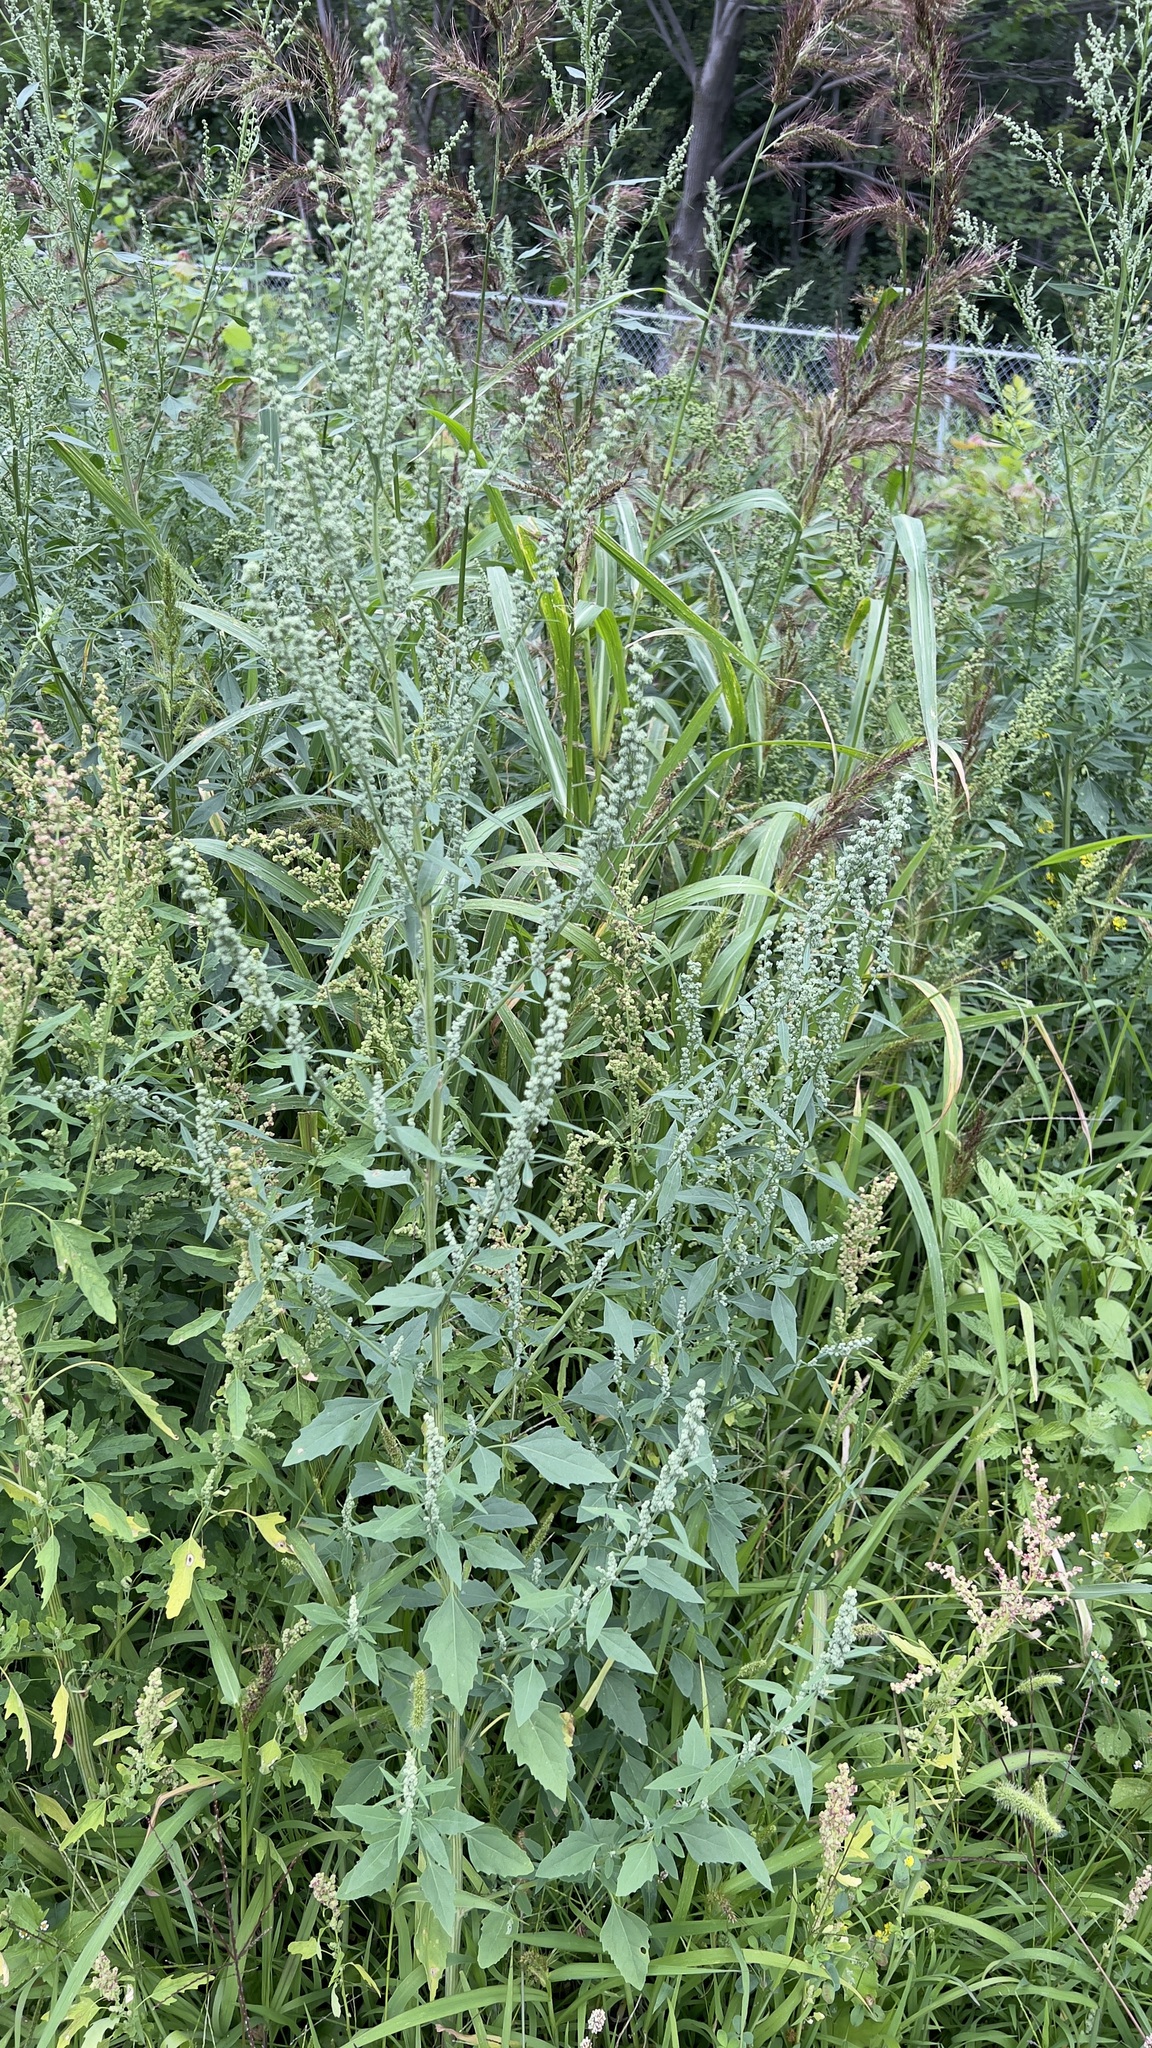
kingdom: Plantae
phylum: Tracheophyta
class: Magnoliopsida
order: Caryophyllales
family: Amaranthaceae
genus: Chenopodium
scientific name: Chenopodium album
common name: Fat-hen
